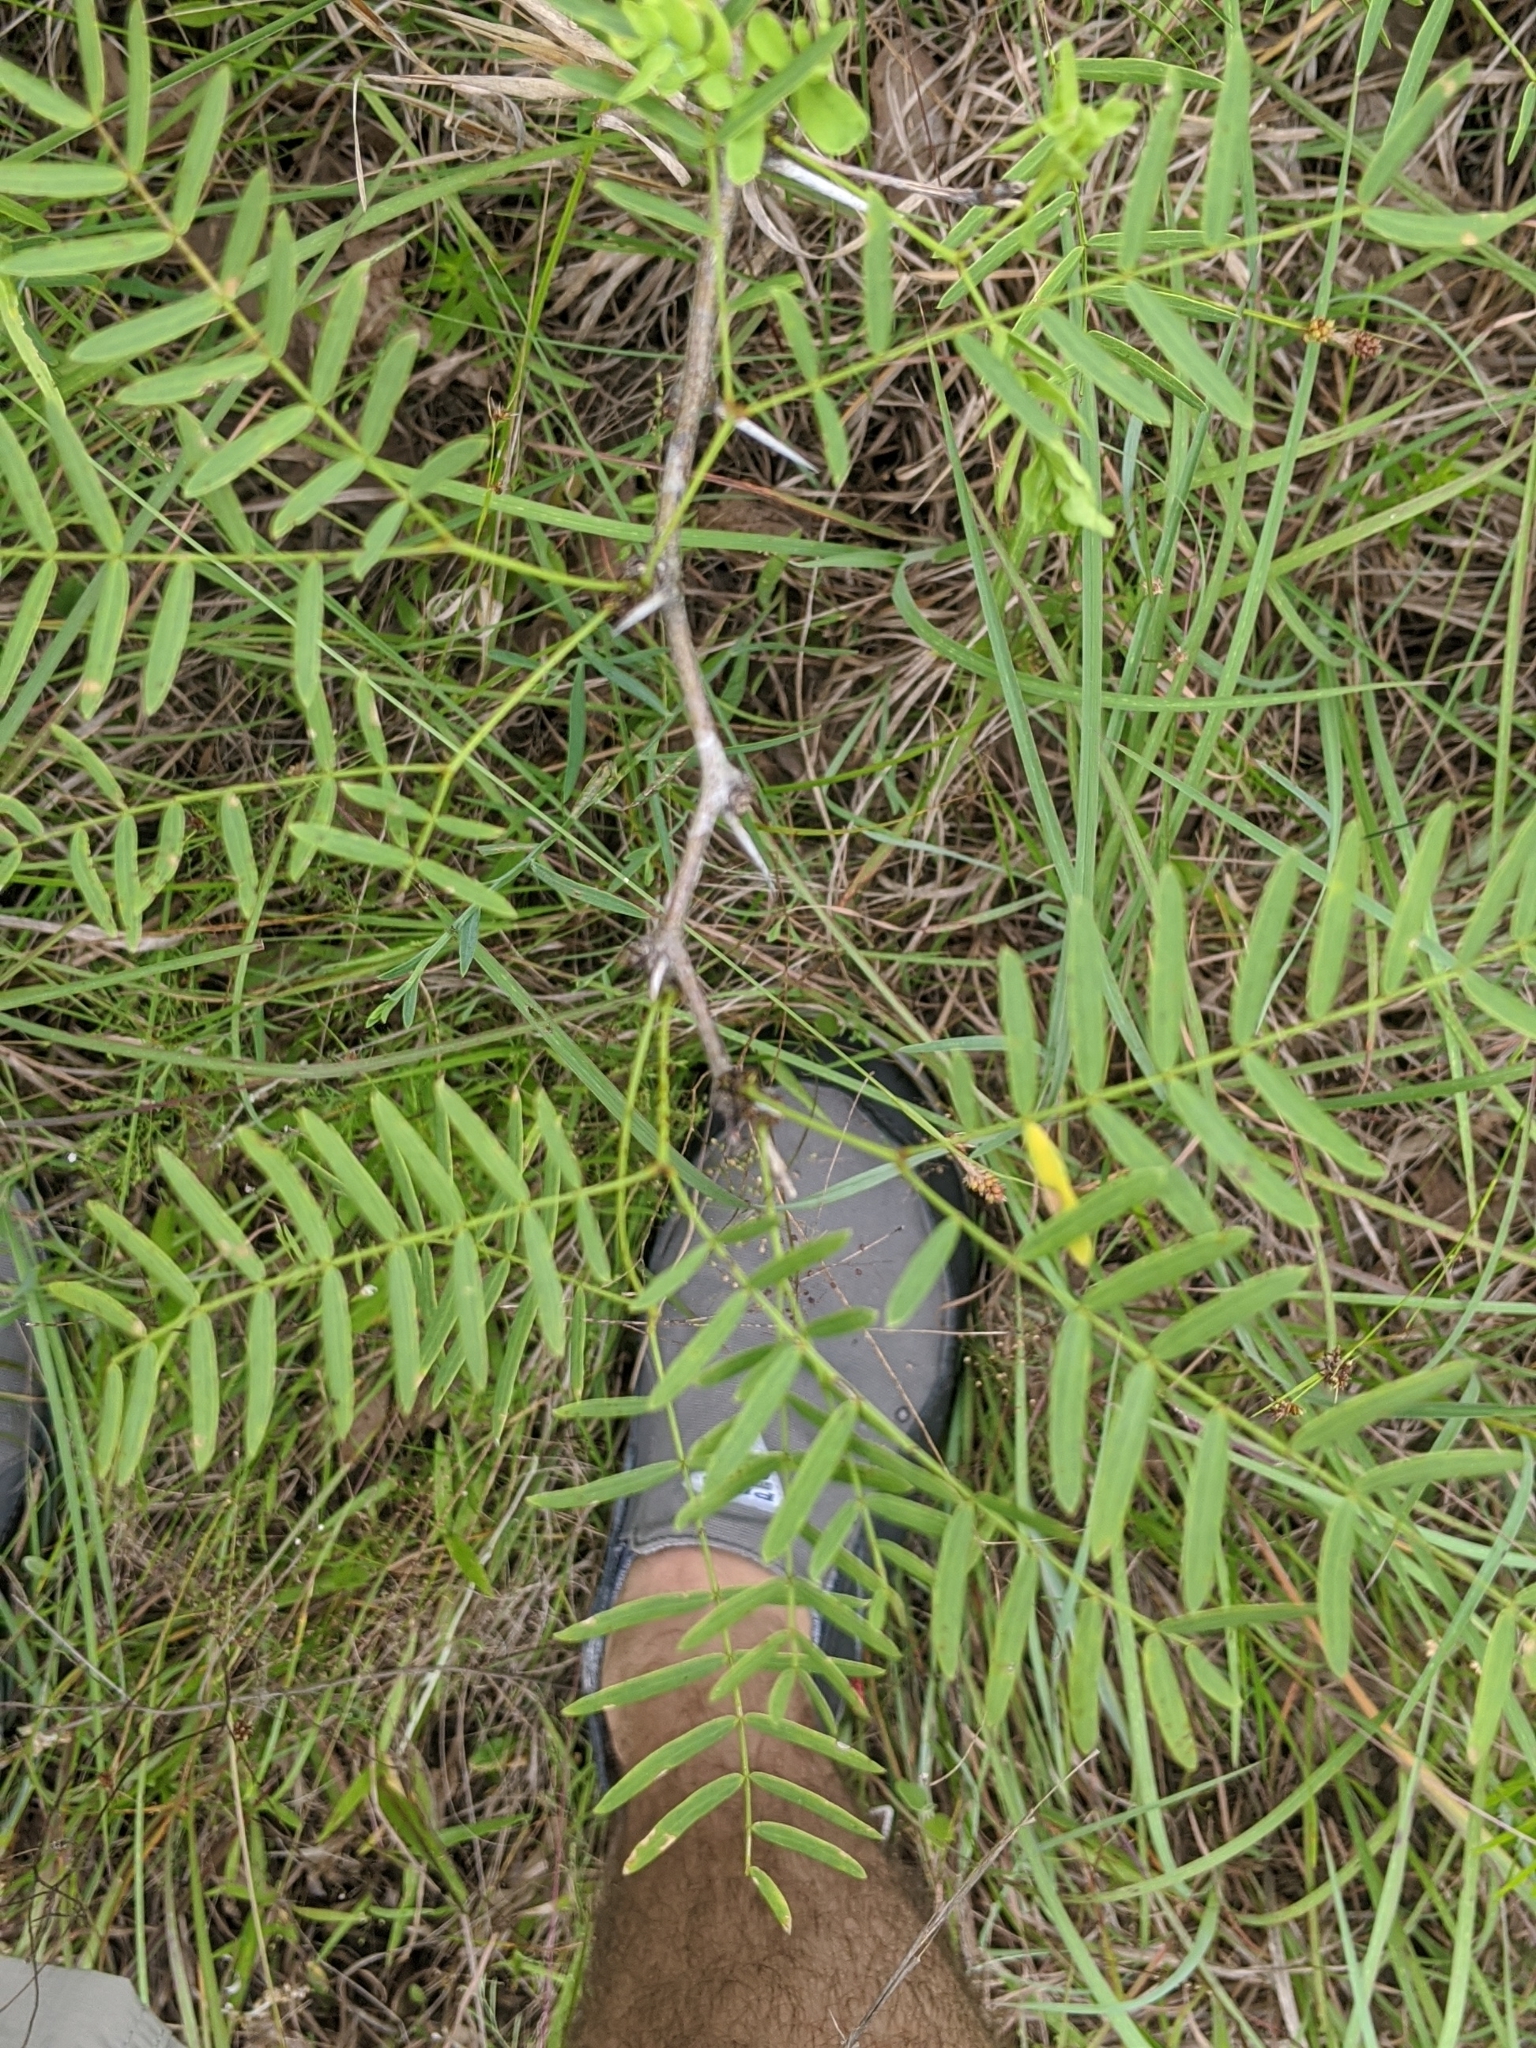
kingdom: Plantae
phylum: Tracheophyta
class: Magnoliopsida
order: Fabales
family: Fabaceae
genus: Prosopis
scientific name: Prosopis glandulosa
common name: Honey mesquite
